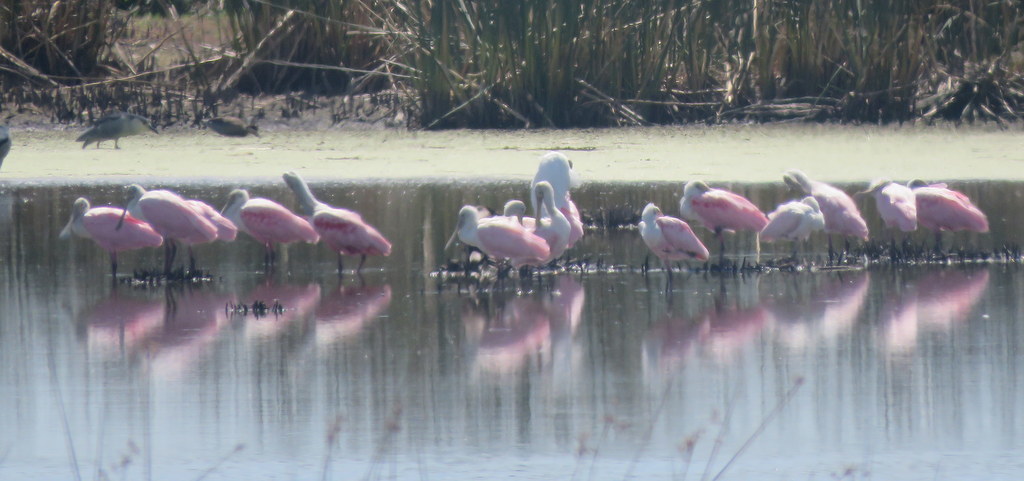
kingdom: Animalia
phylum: Chordata
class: Aves
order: Pelecaniformes
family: Threskiornithidae
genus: Platalea
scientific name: Platalea ajaja
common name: Roseate spoonbill
